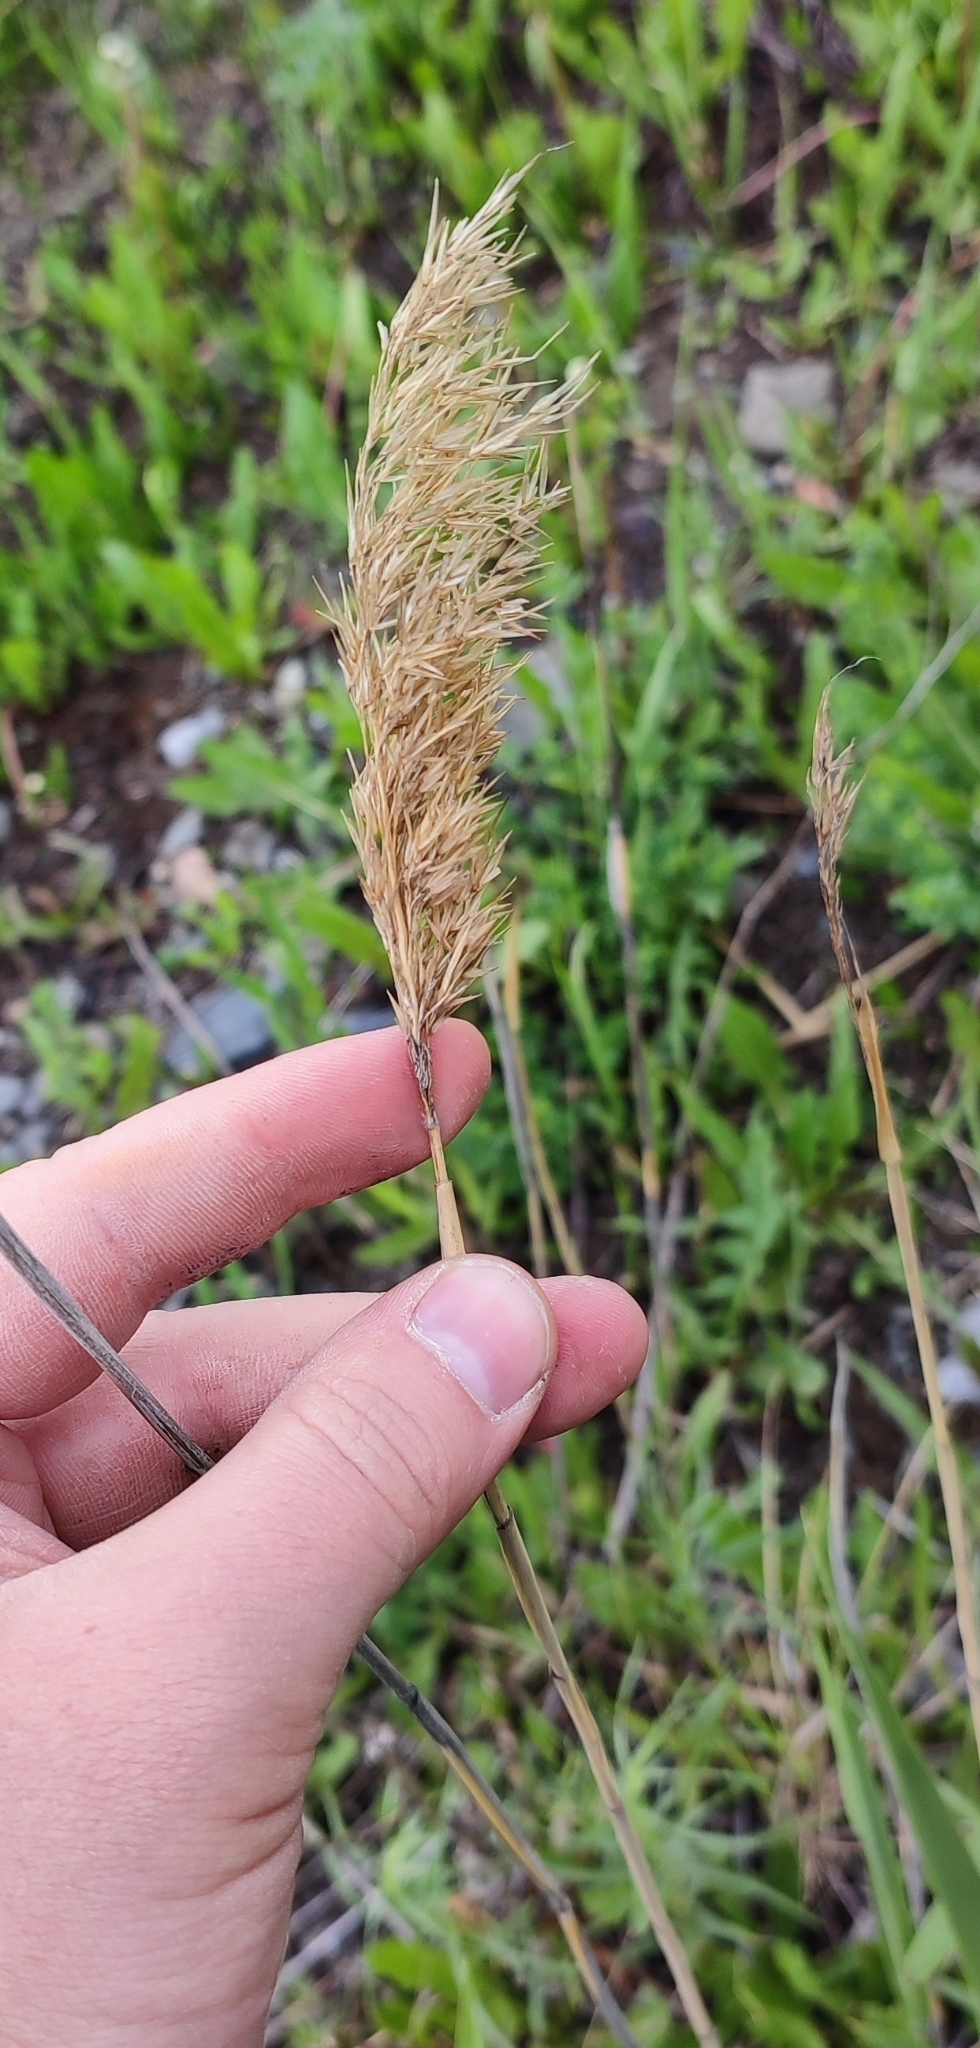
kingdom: Plantae
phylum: Tracheophyta
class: Liliopsida
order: Poales
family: Poaceae
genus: Phragmites
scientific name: Phragmites australis
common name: Common reed
